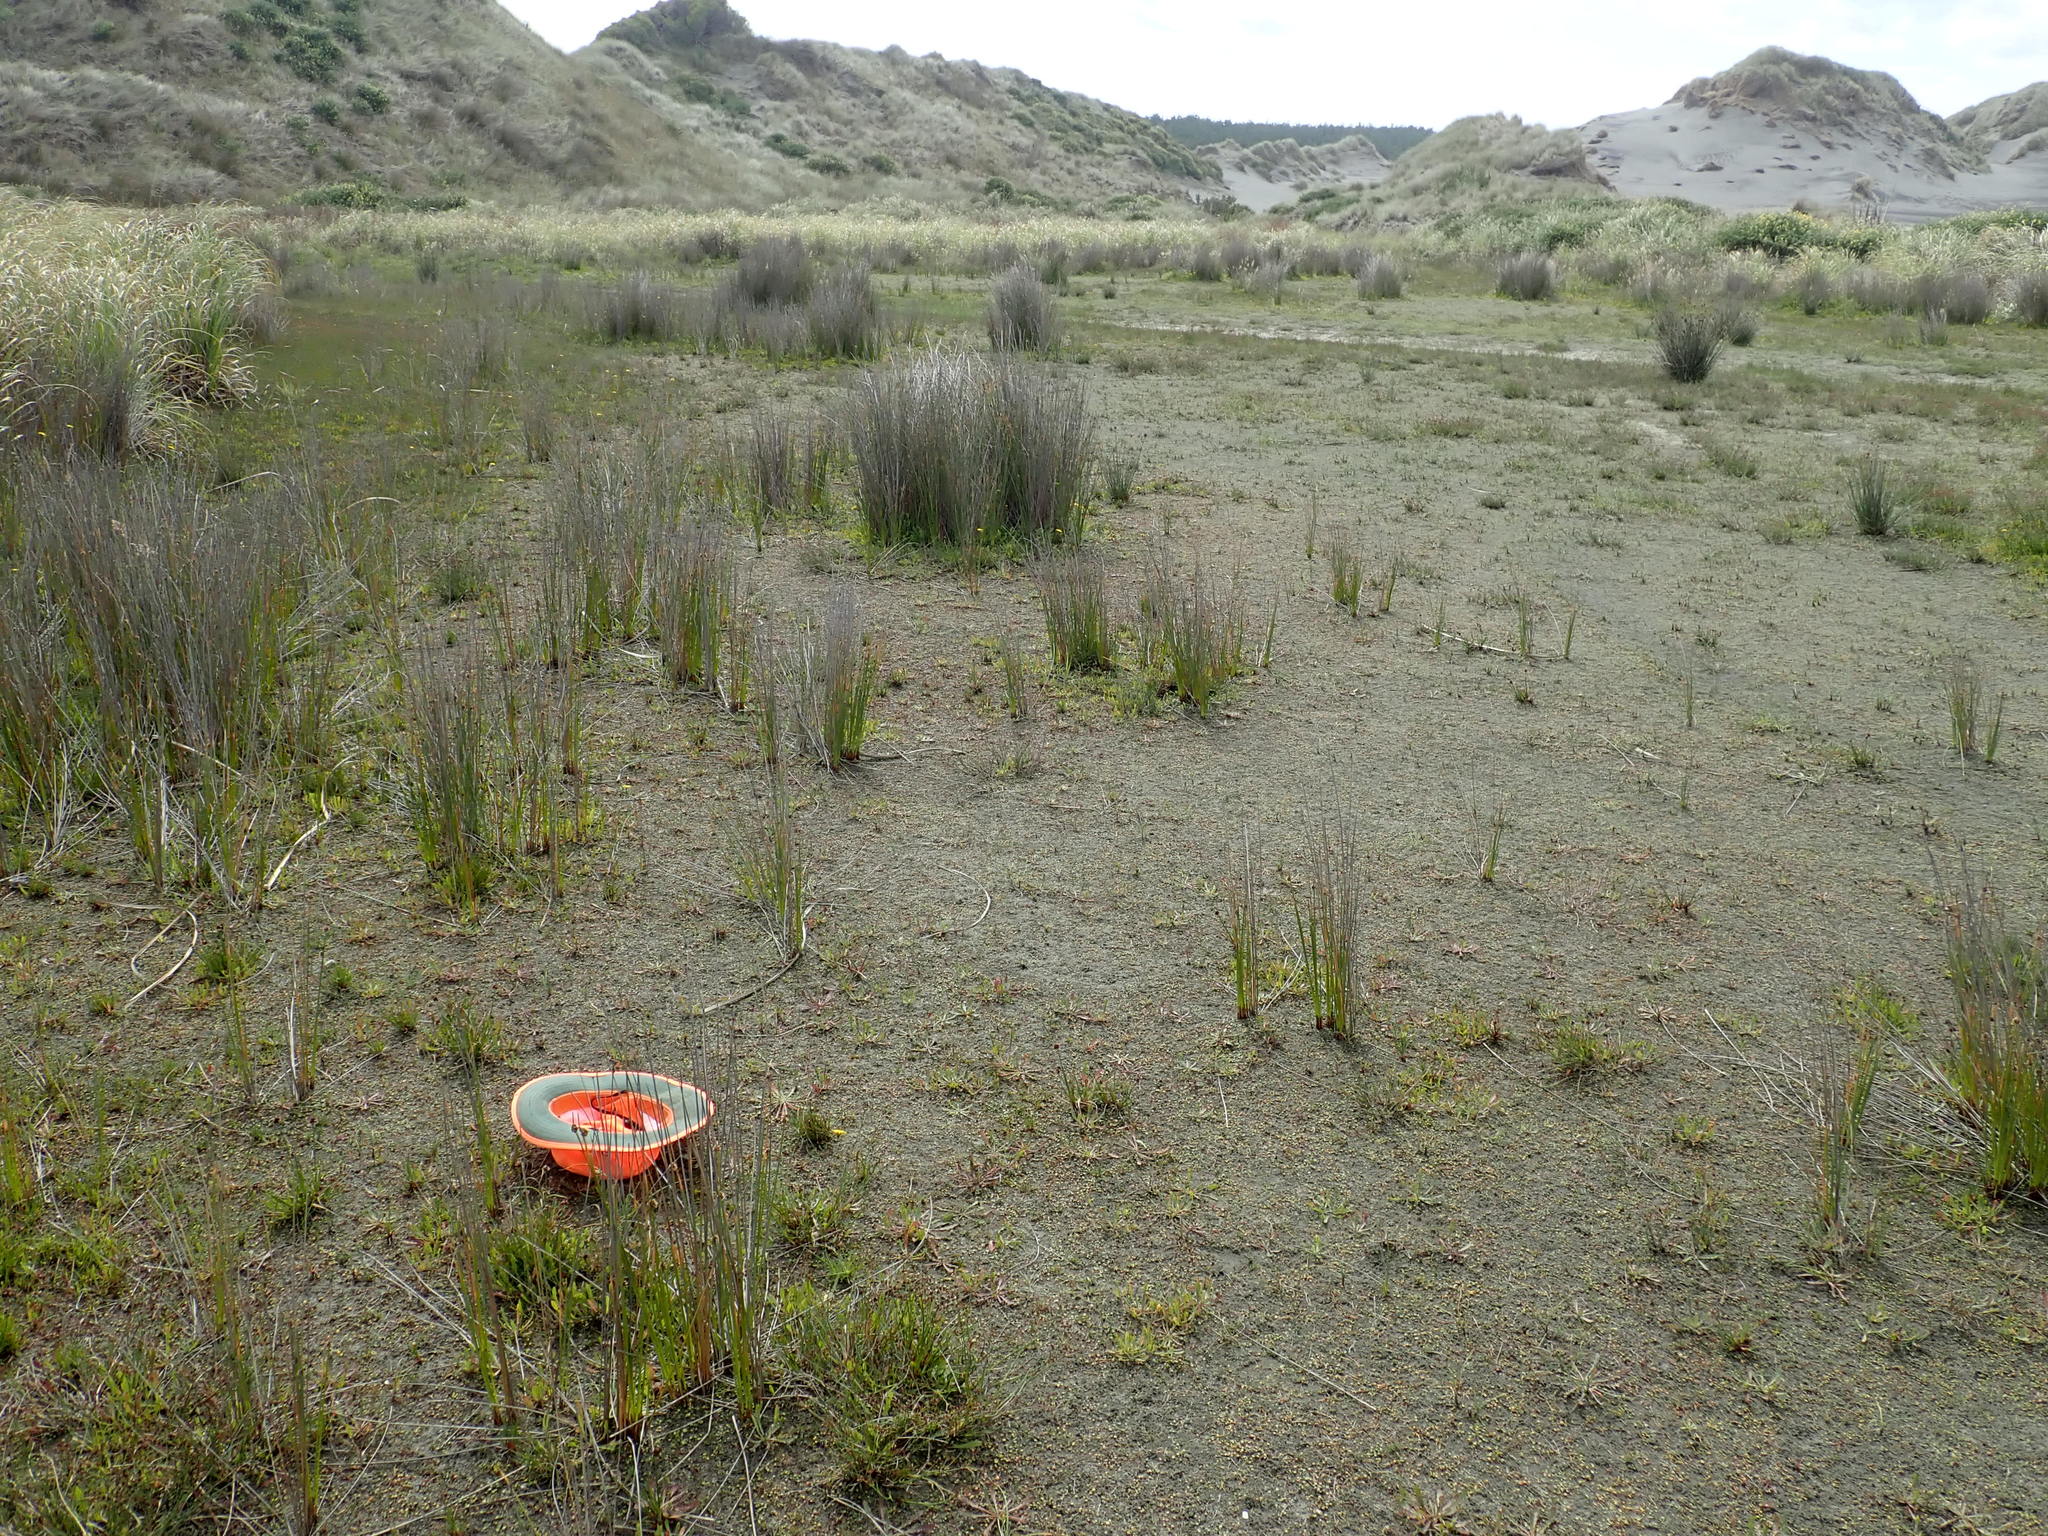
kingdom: Plantae
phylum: Tracheophyta
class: Liliopsida
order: Poales
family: Cyperaceae
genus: Isolepis
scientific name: Isolepis basilaris
